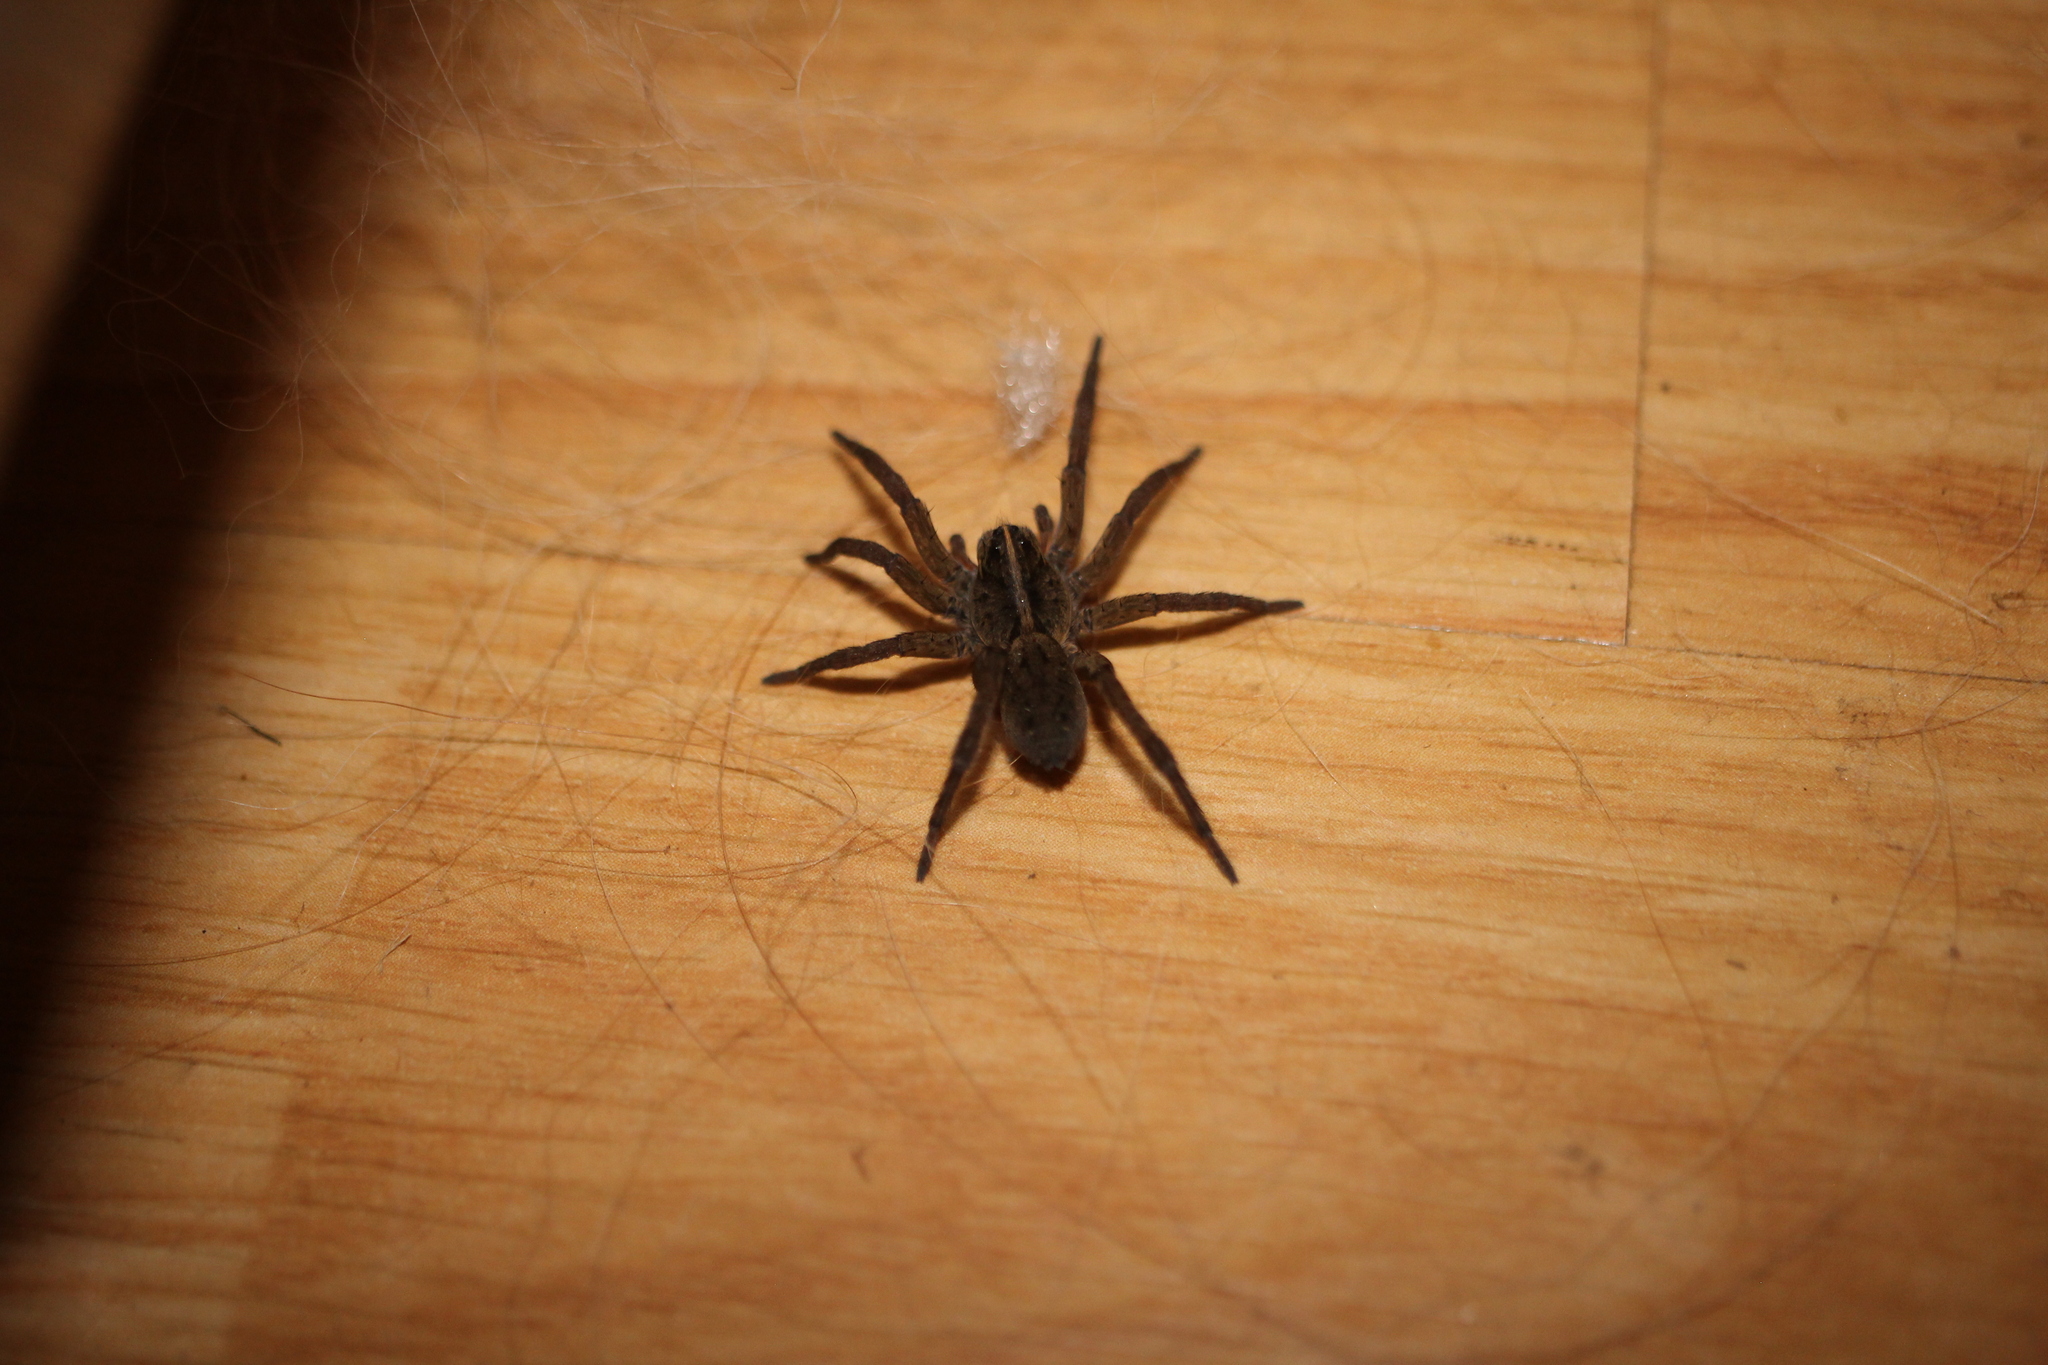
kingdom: Animalia
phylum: Arthropoda
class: Arachnida
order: Araneae
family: Lycosidae
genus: Tigrosa
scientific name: Tigrosa helluo
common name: Wetland giant wolf spider
